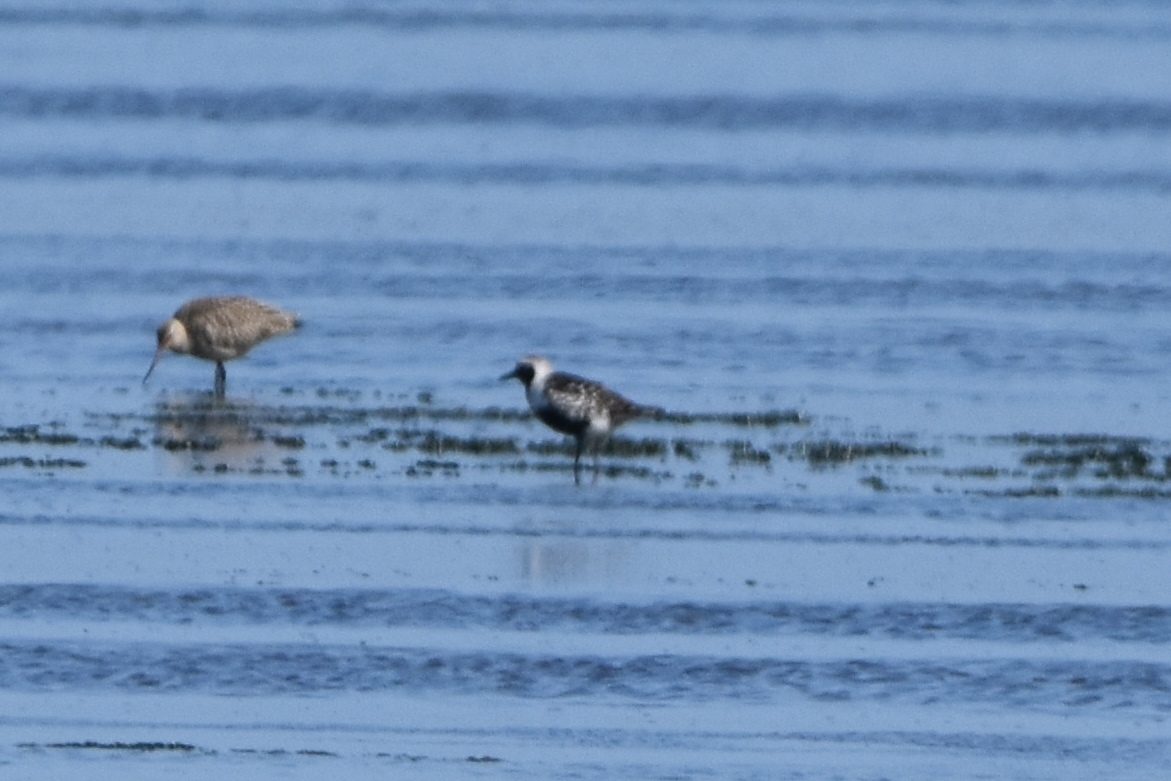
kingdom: Animalia
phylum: Chordata
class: Aves
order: Charadriiformes
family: Charadriidae
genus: Pluvialis
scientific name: Pluvialis squatarola
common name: Grey plover
